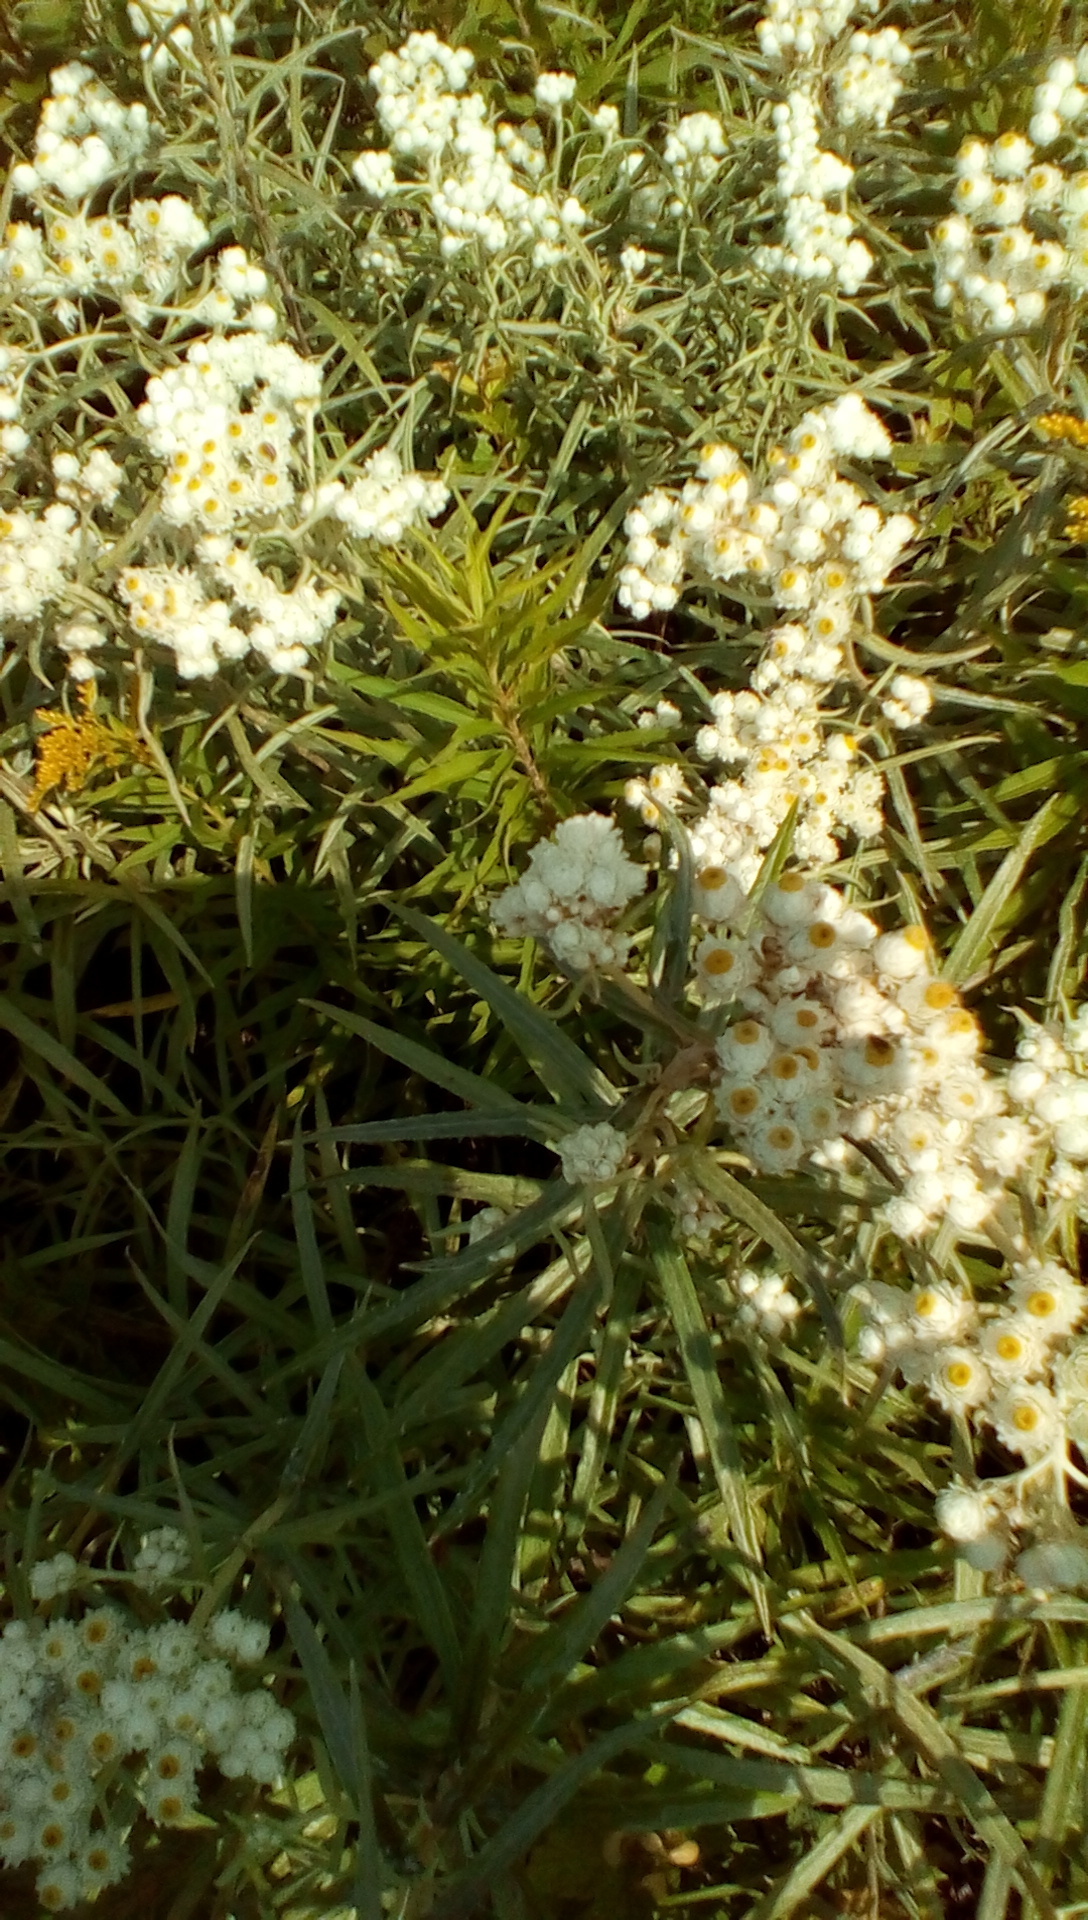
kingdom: Plantae
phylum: Tracheophyta
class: Magnoliopsida
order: Asterales
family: Asteraceae
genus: Anaphalis
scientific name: Anaphalis margaritacea
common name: Pearly everlasting
